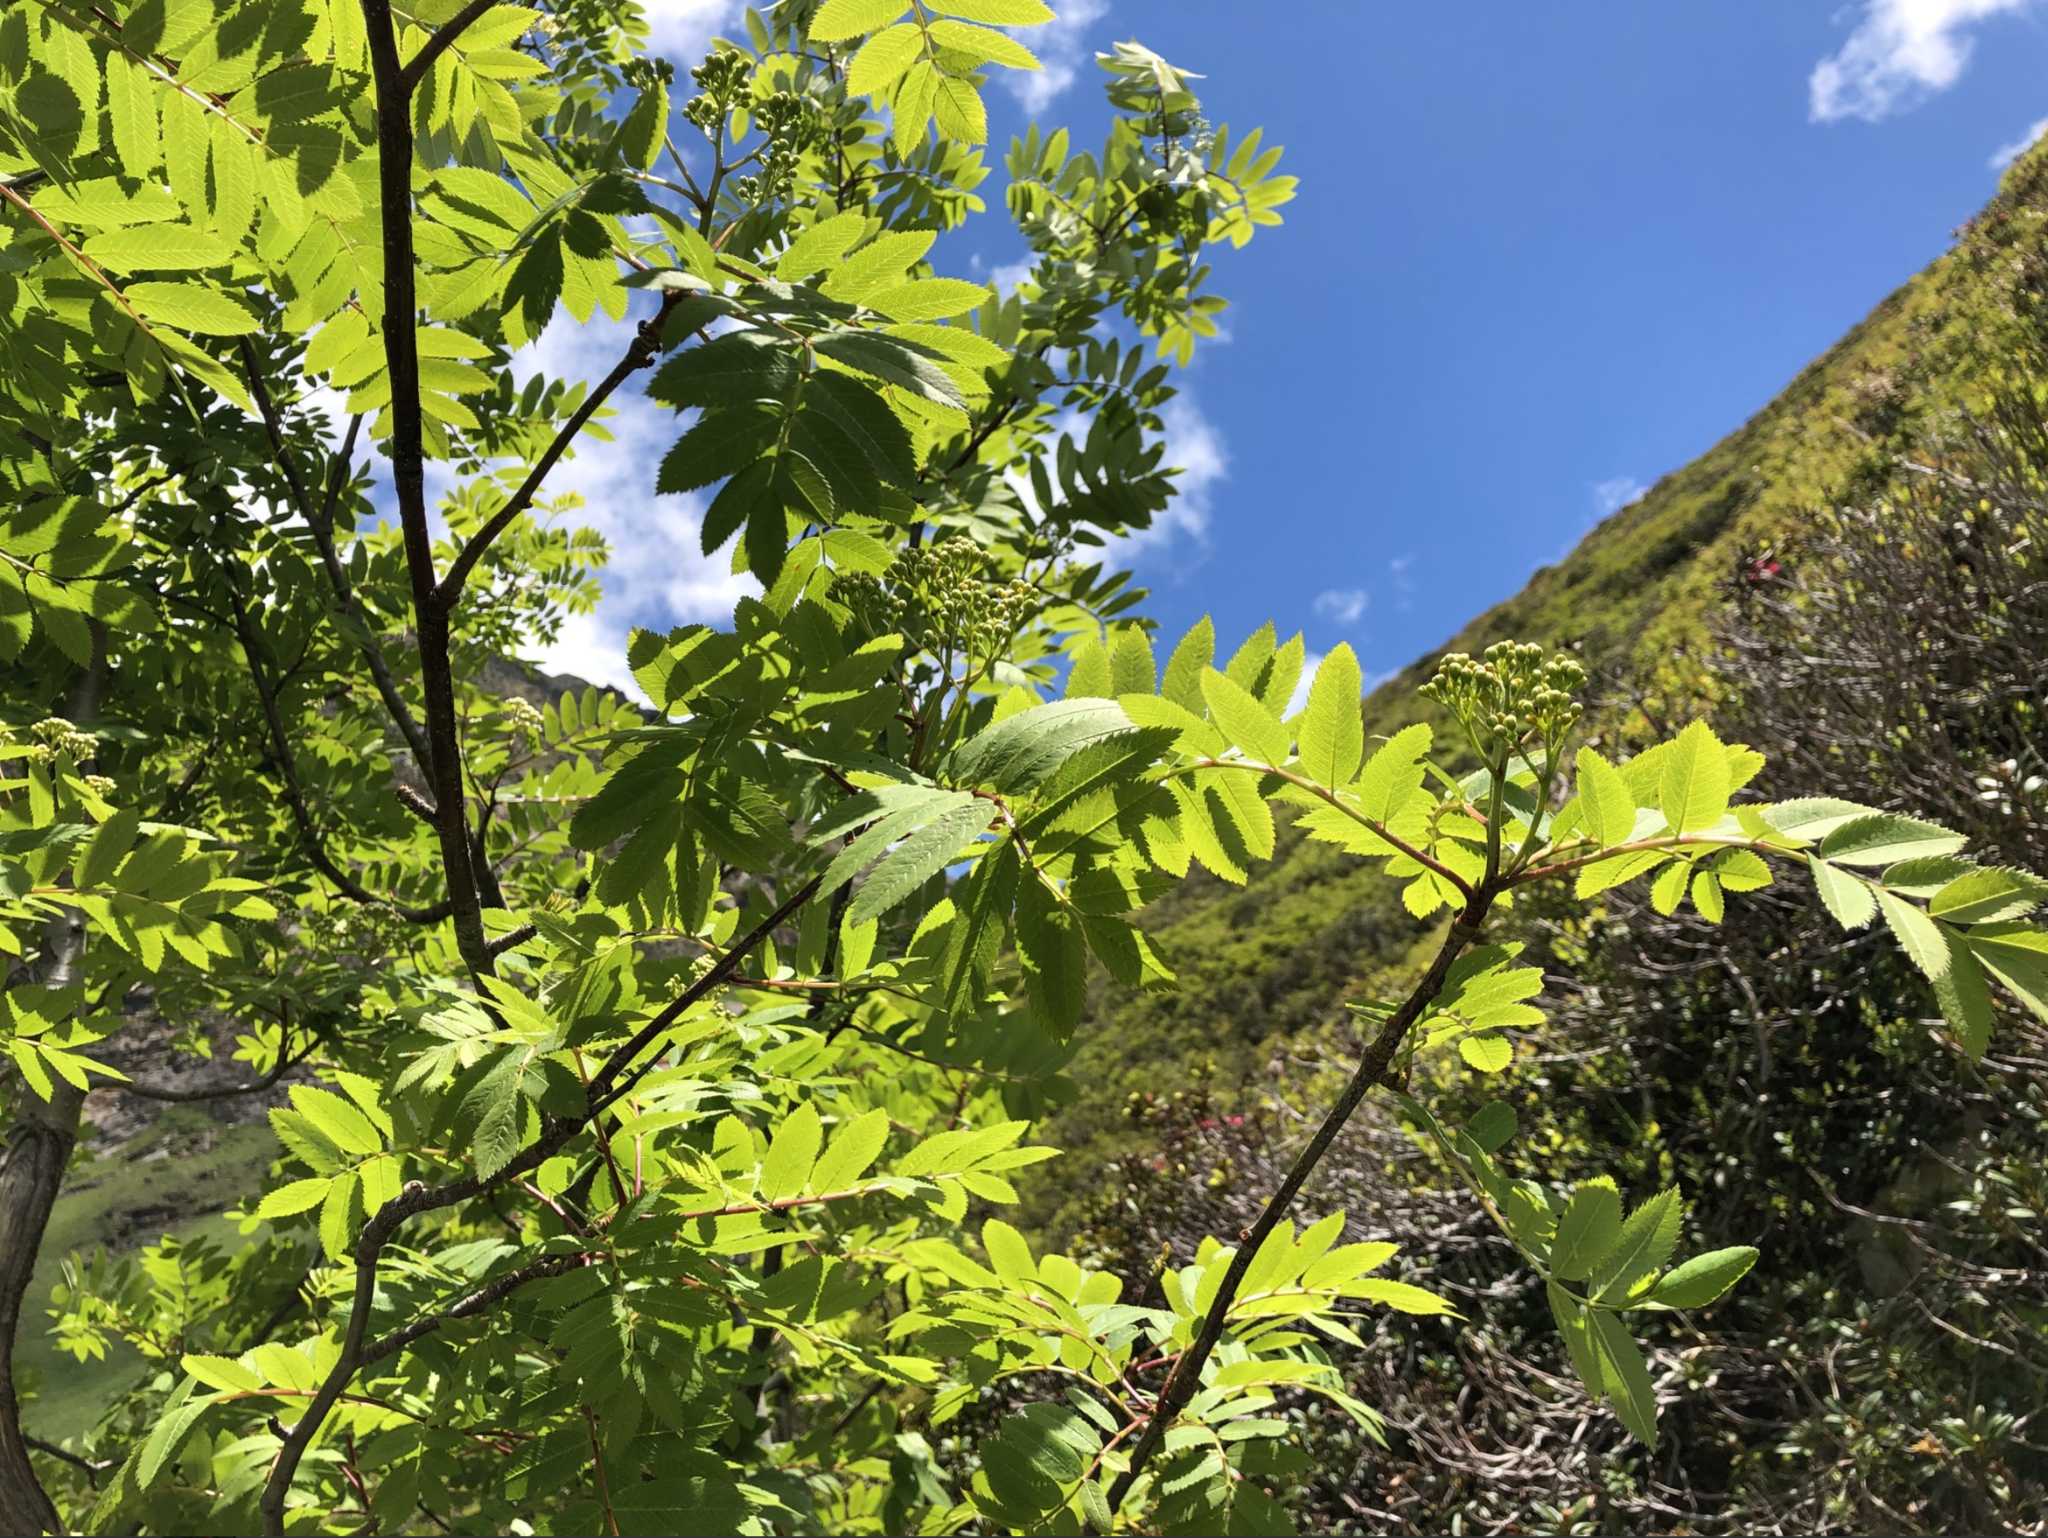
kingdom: Plantae
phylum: Tracheophyta
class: Magnoliopsida
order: Rosales
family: Rosaceae
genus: Sorbus
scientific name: Sorbus aucuparia
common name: Rowan
